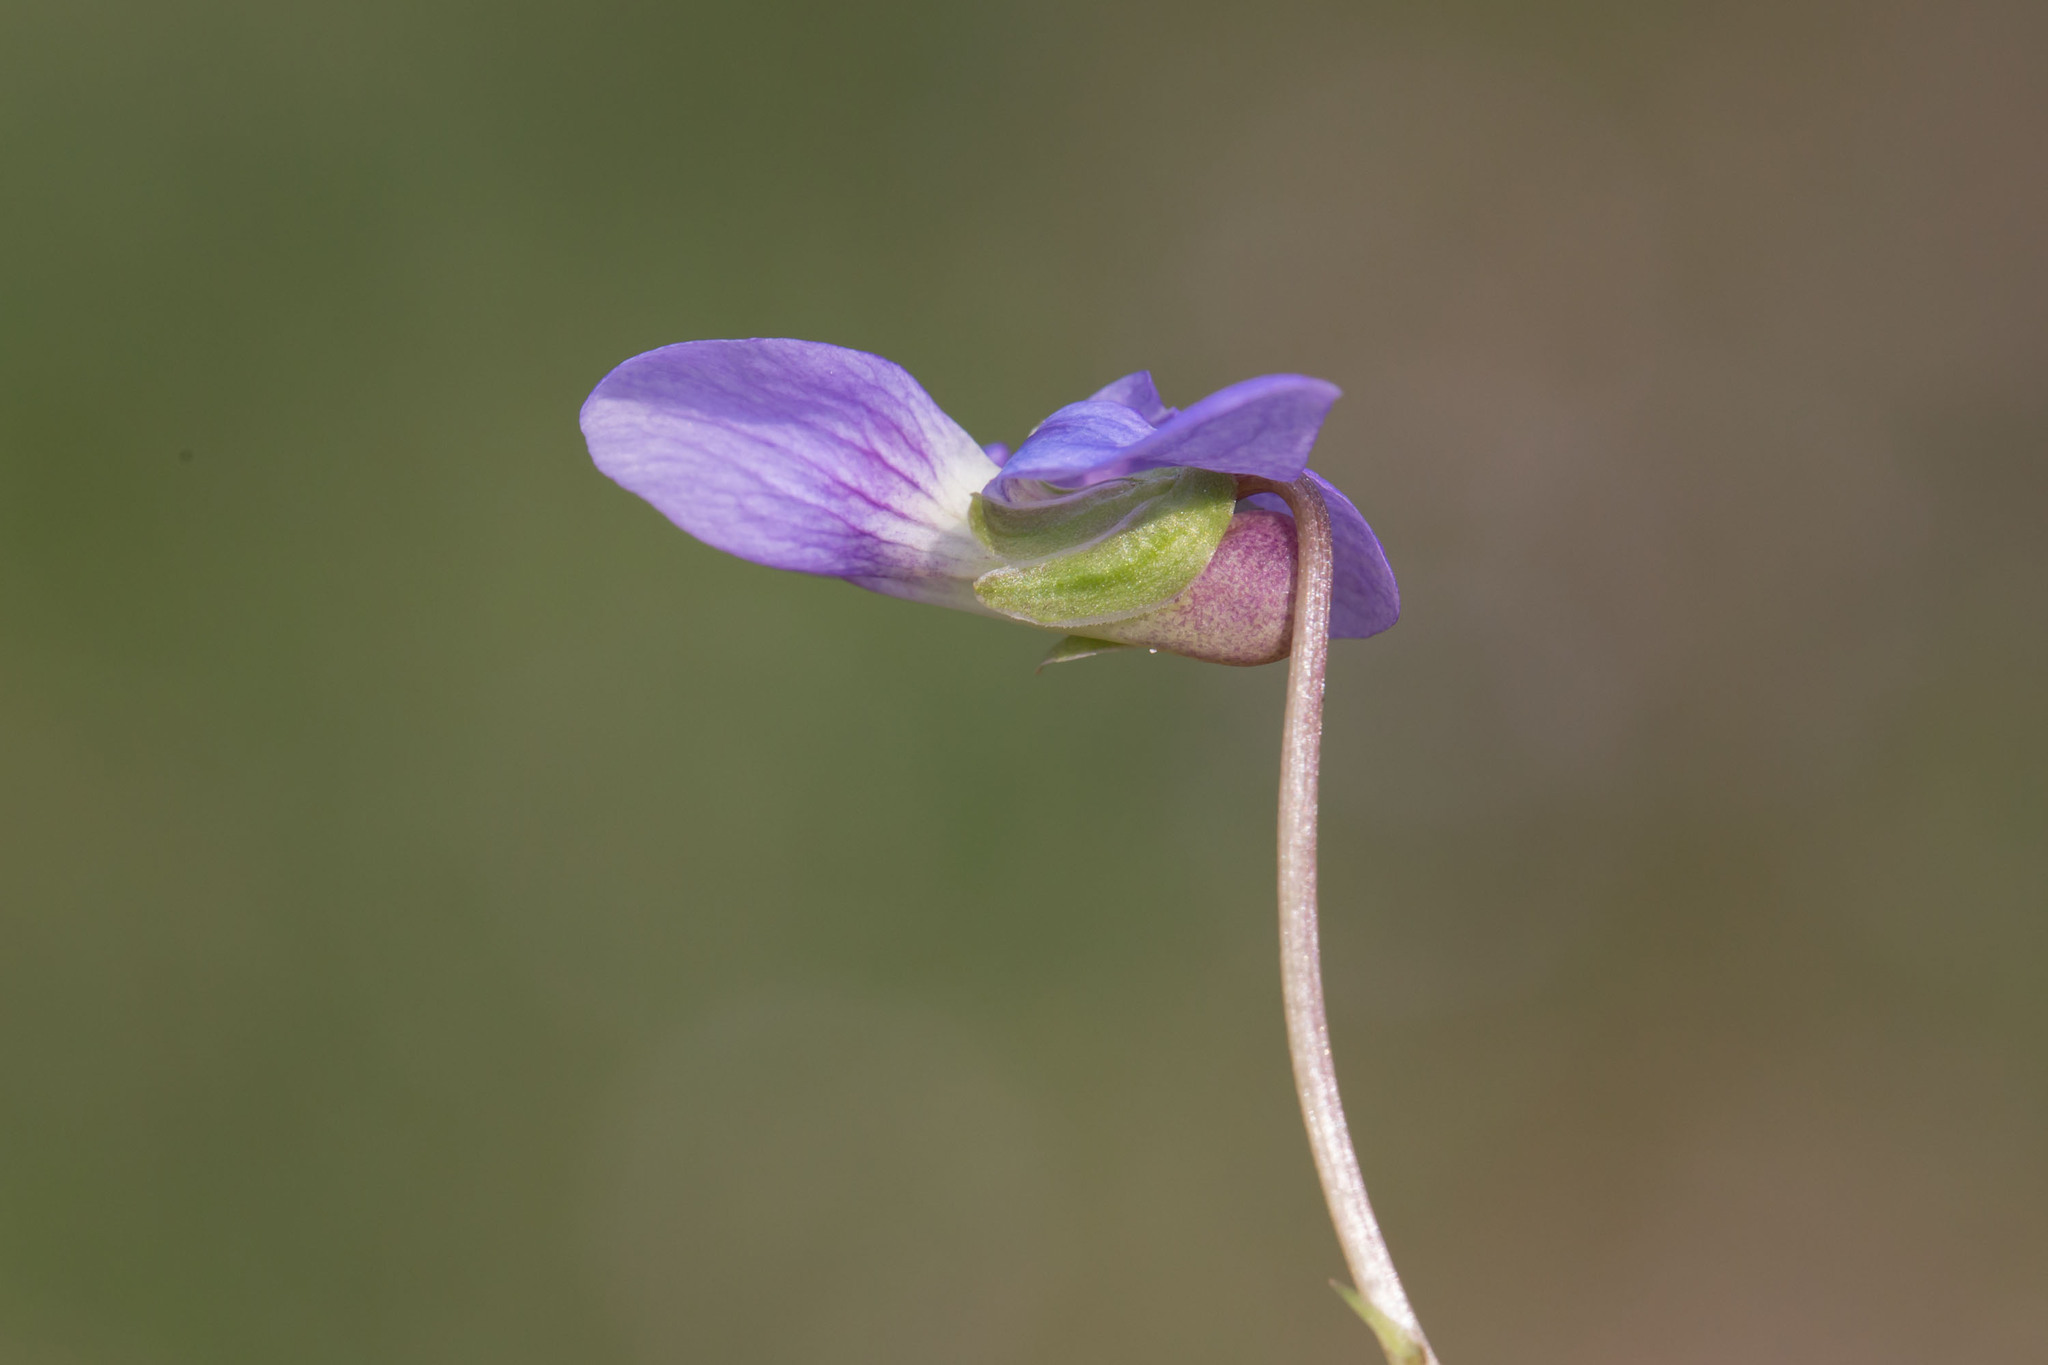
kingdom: Plantae
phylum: Tracheophyta
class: Magnoliopsida
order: Malpighiales
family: Violaceae
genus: Viola
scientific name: Viola sororia
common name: Dooryard violet
